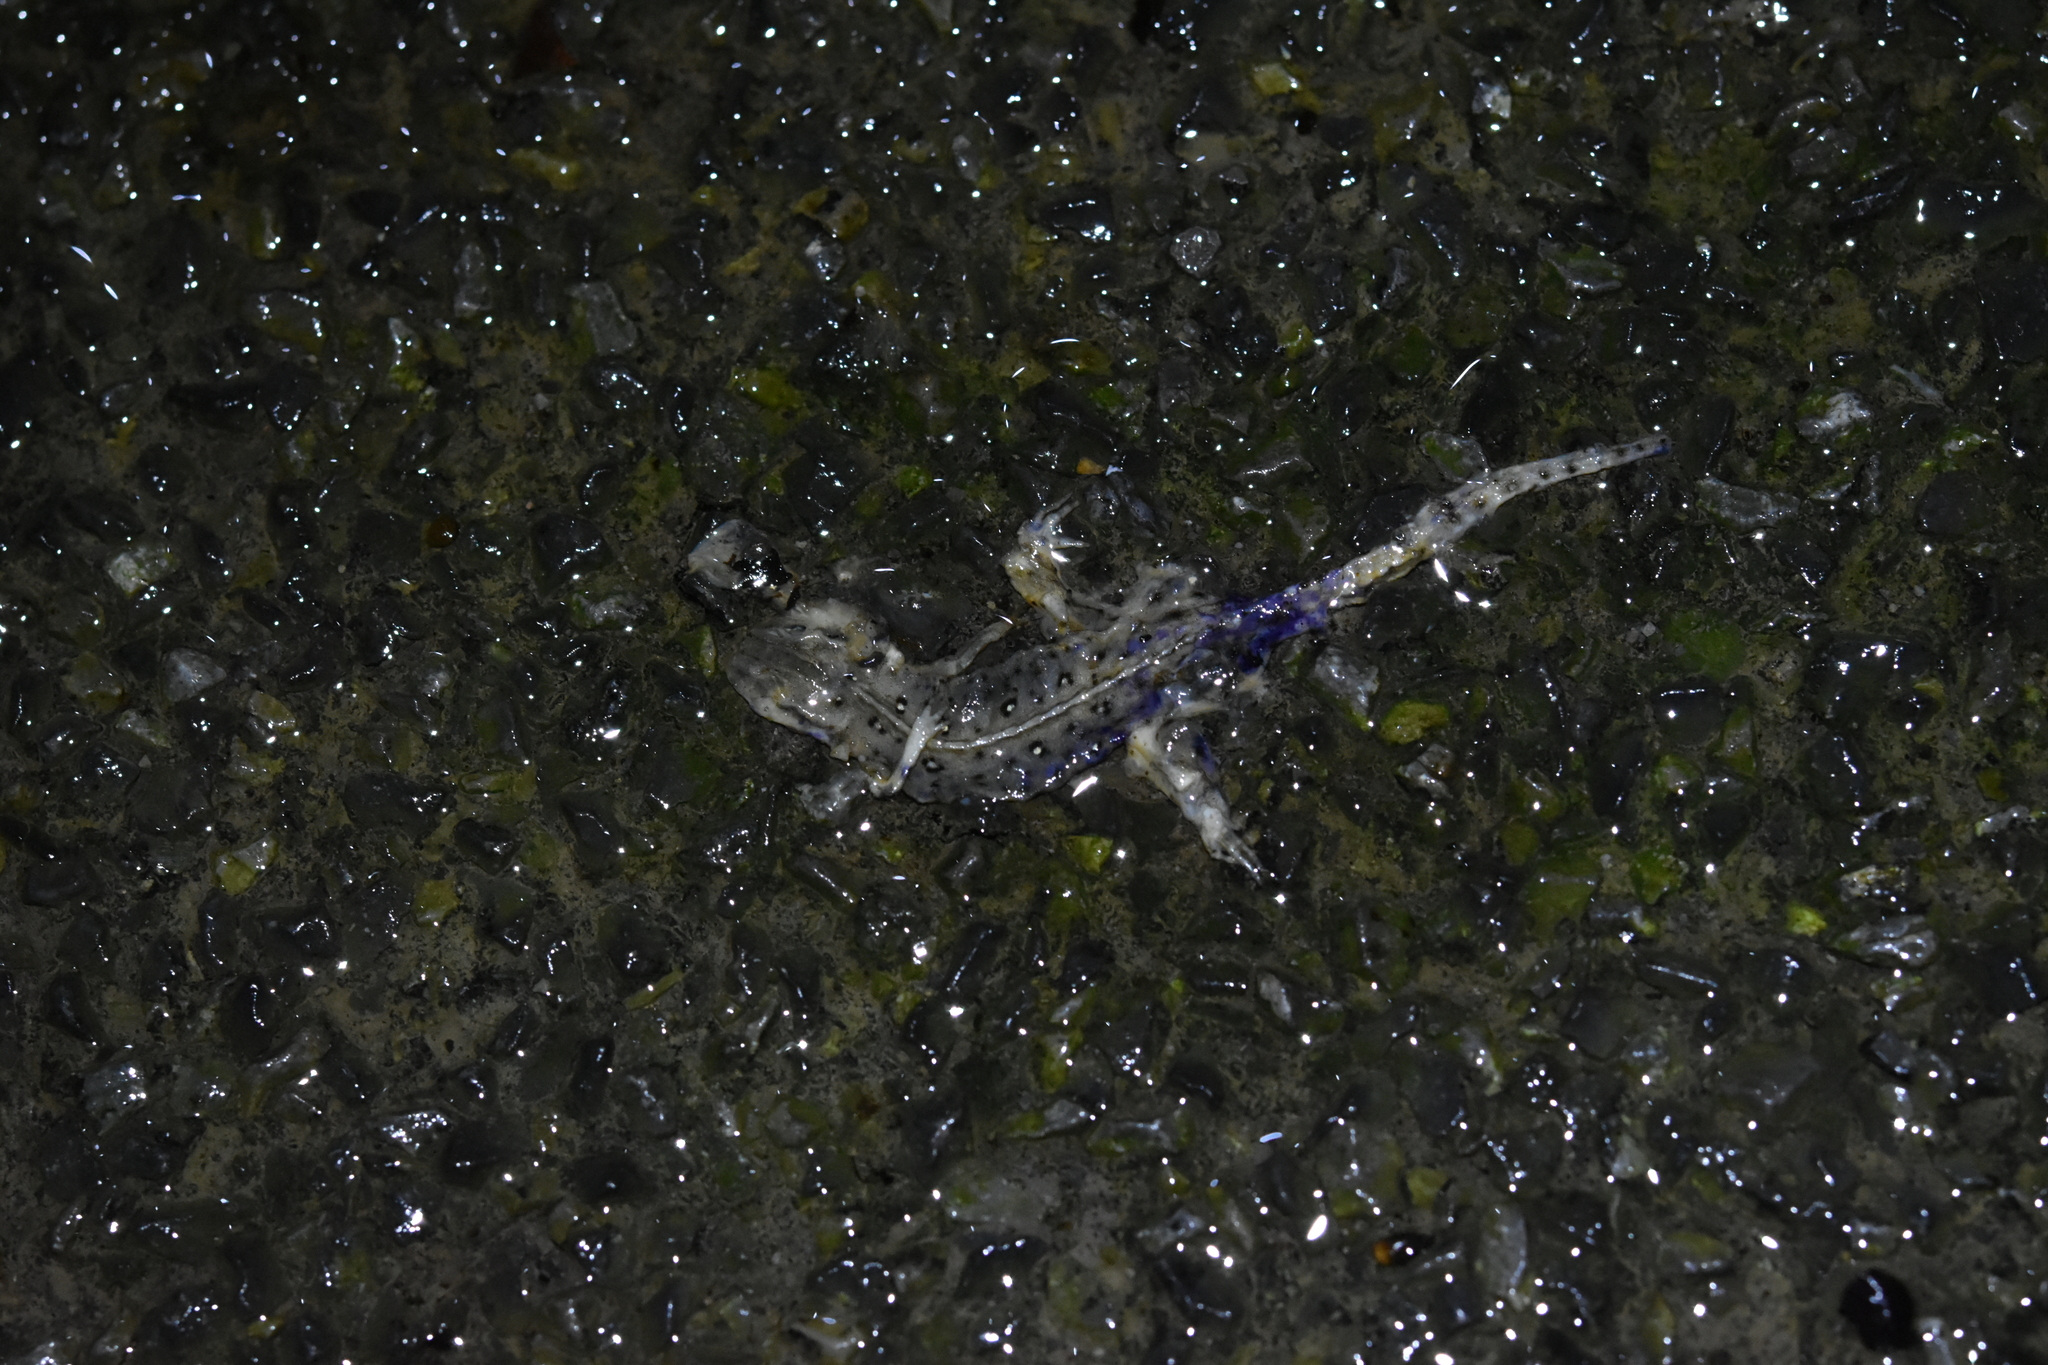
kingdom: Animalia
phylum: Chordata
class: Amphibia
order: Caudata
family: Salamandridae
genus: Notophthalmus
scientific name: Notophthalmus viridescens
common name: Eastern newt
